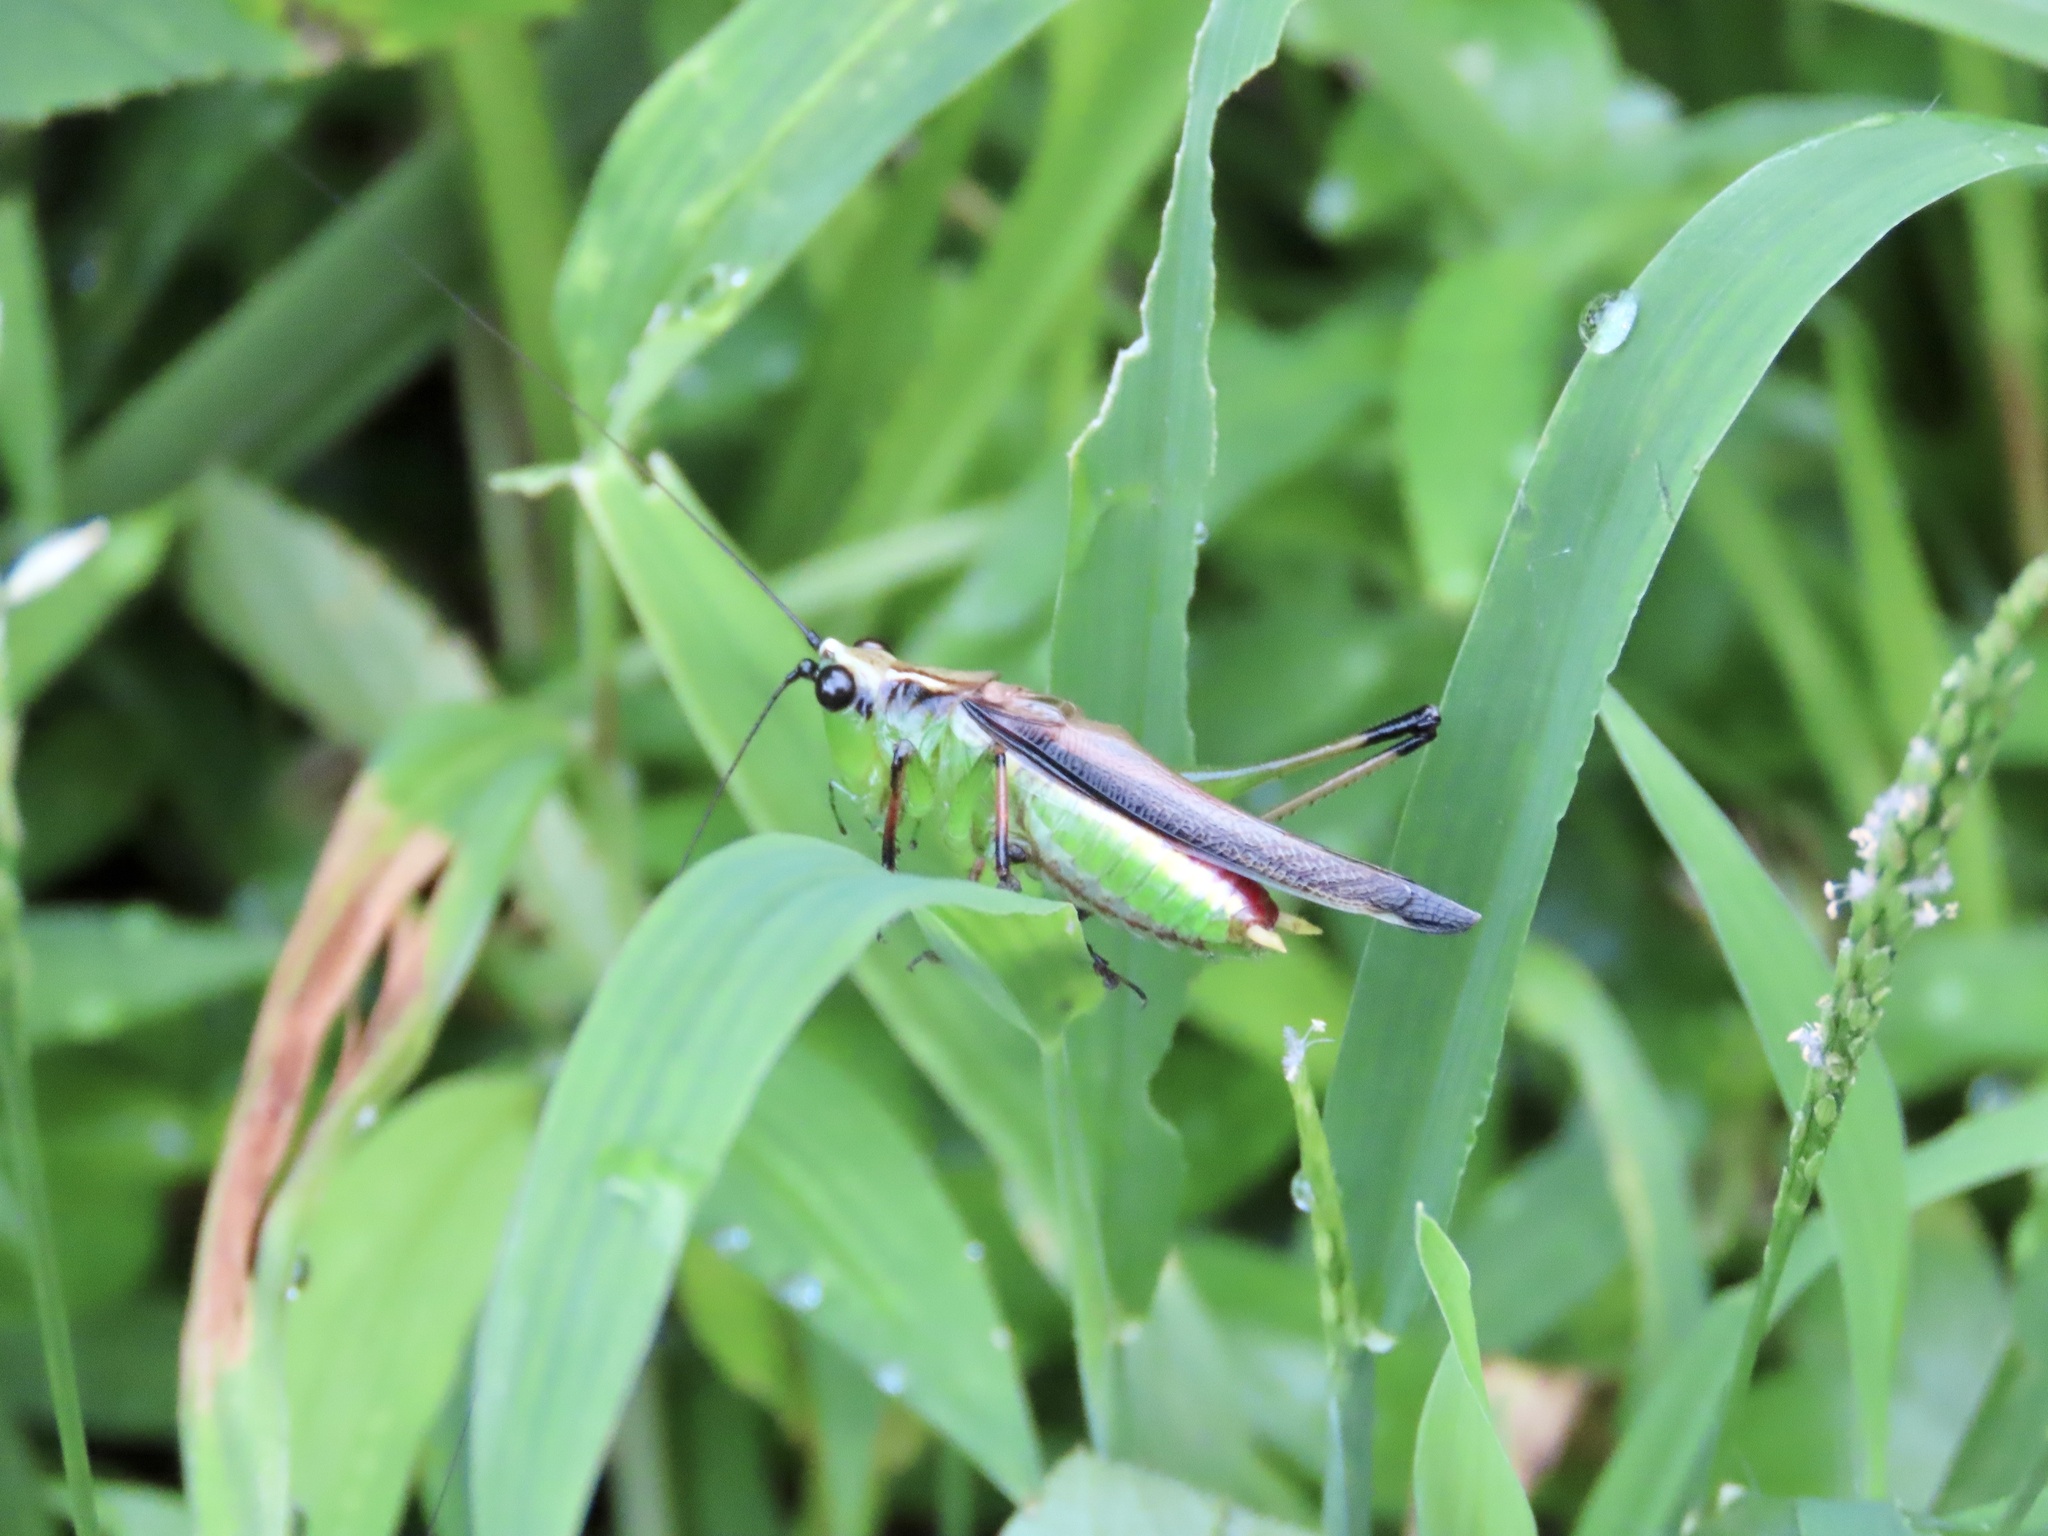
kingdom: Animalia
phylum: Arthropoda
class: Insecta
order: Orthoptera
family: Tettigoniidae
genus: Conocephalus
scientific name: Conocephalus melaenus
